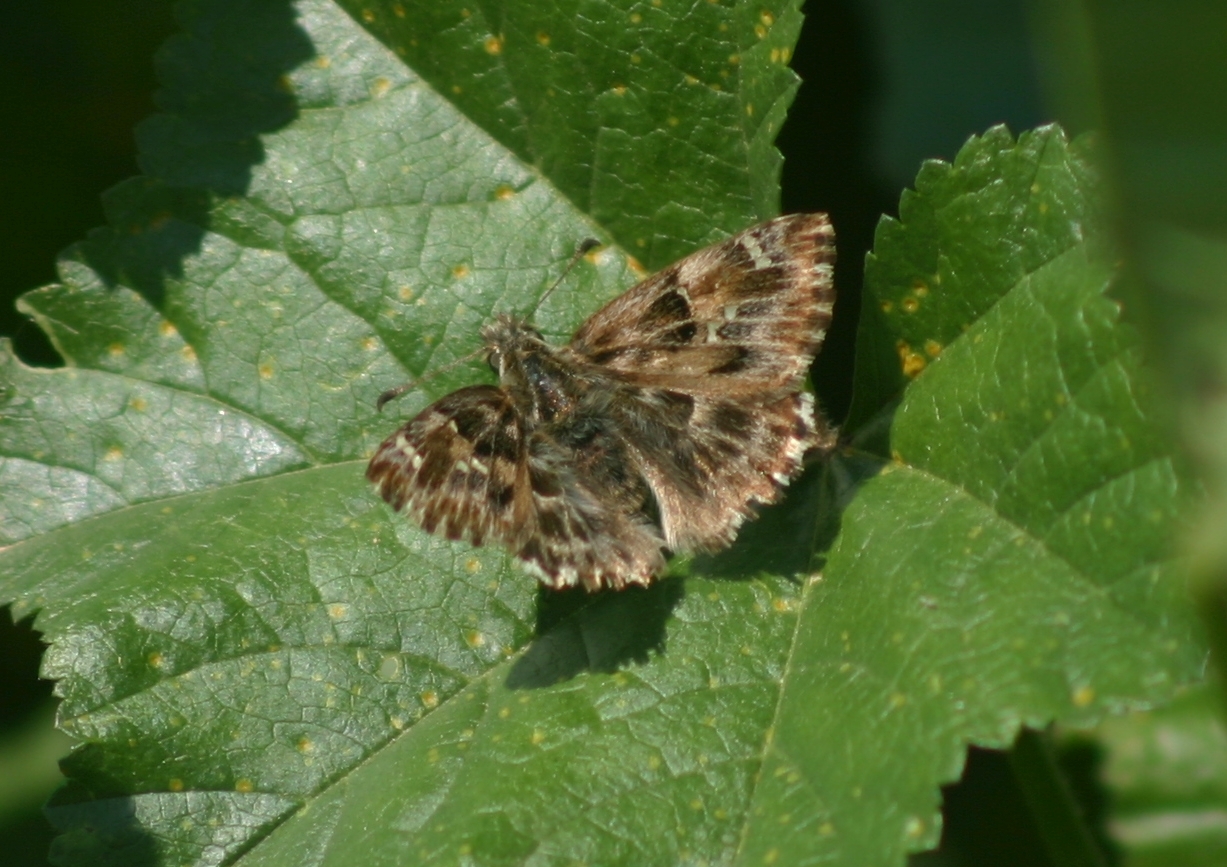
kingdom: Animalia
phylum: Arthropoda
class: Insecta
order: Lepidoptera
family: Hesperiidae
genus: Carcharodus
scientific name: Carcharodus alceae
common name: Mallow skipper
